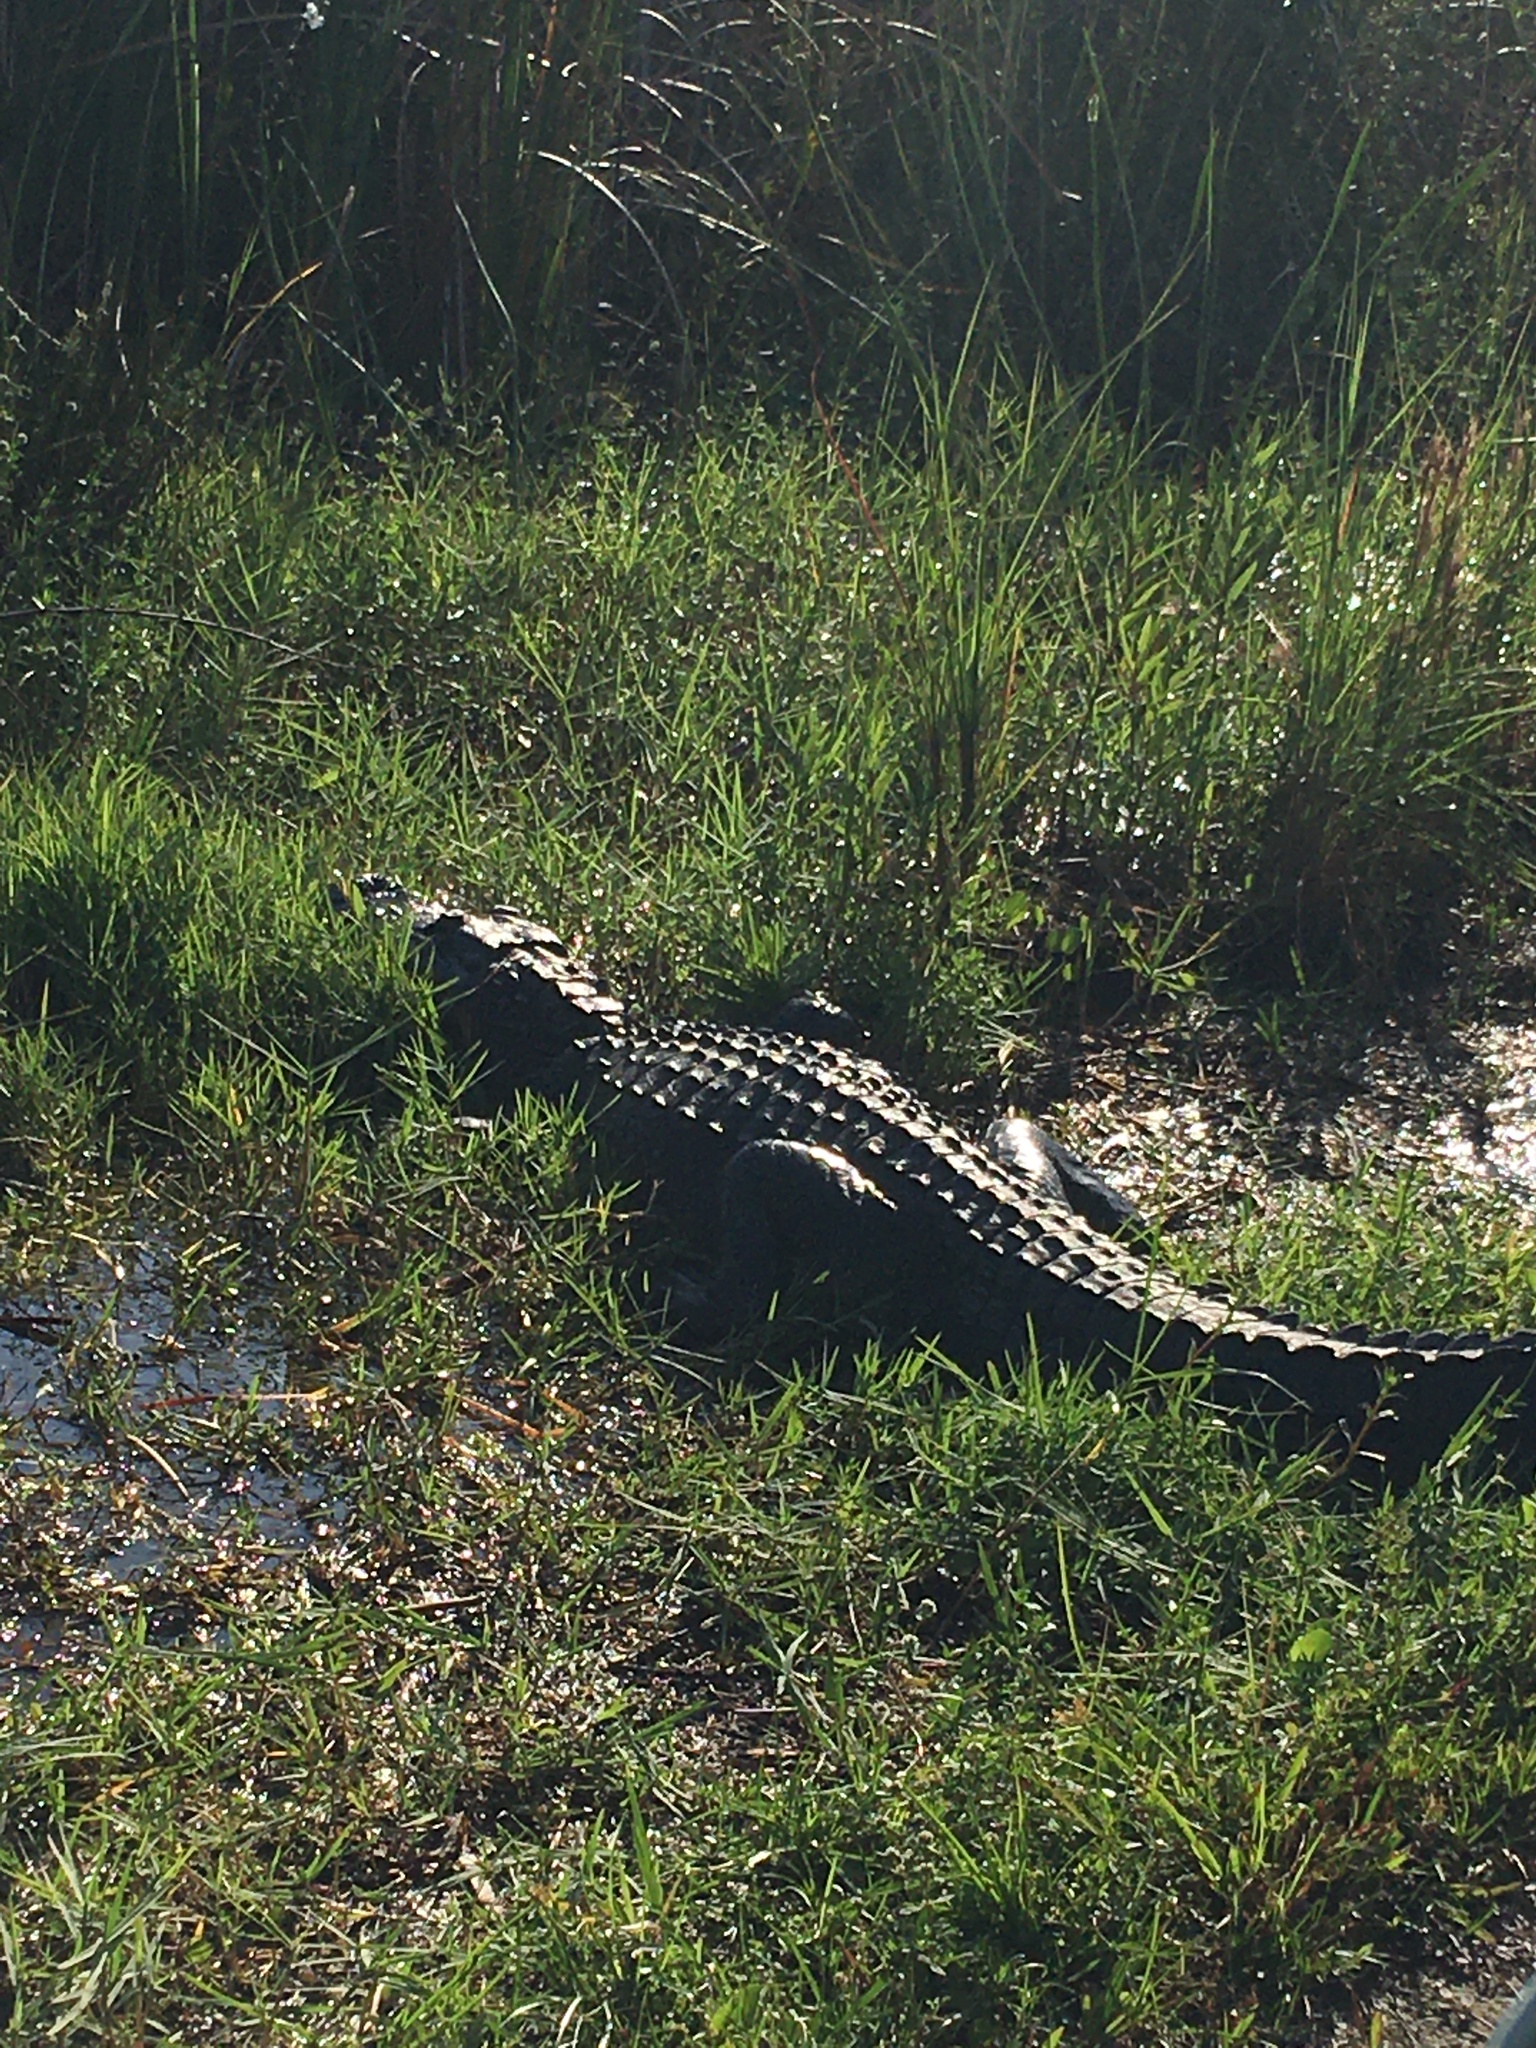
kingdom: Animalia
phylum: Chordata
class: Crocodylia
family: Alligatoridae
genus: Alligator
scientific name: Alligator mississippiensis
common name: American alligator
